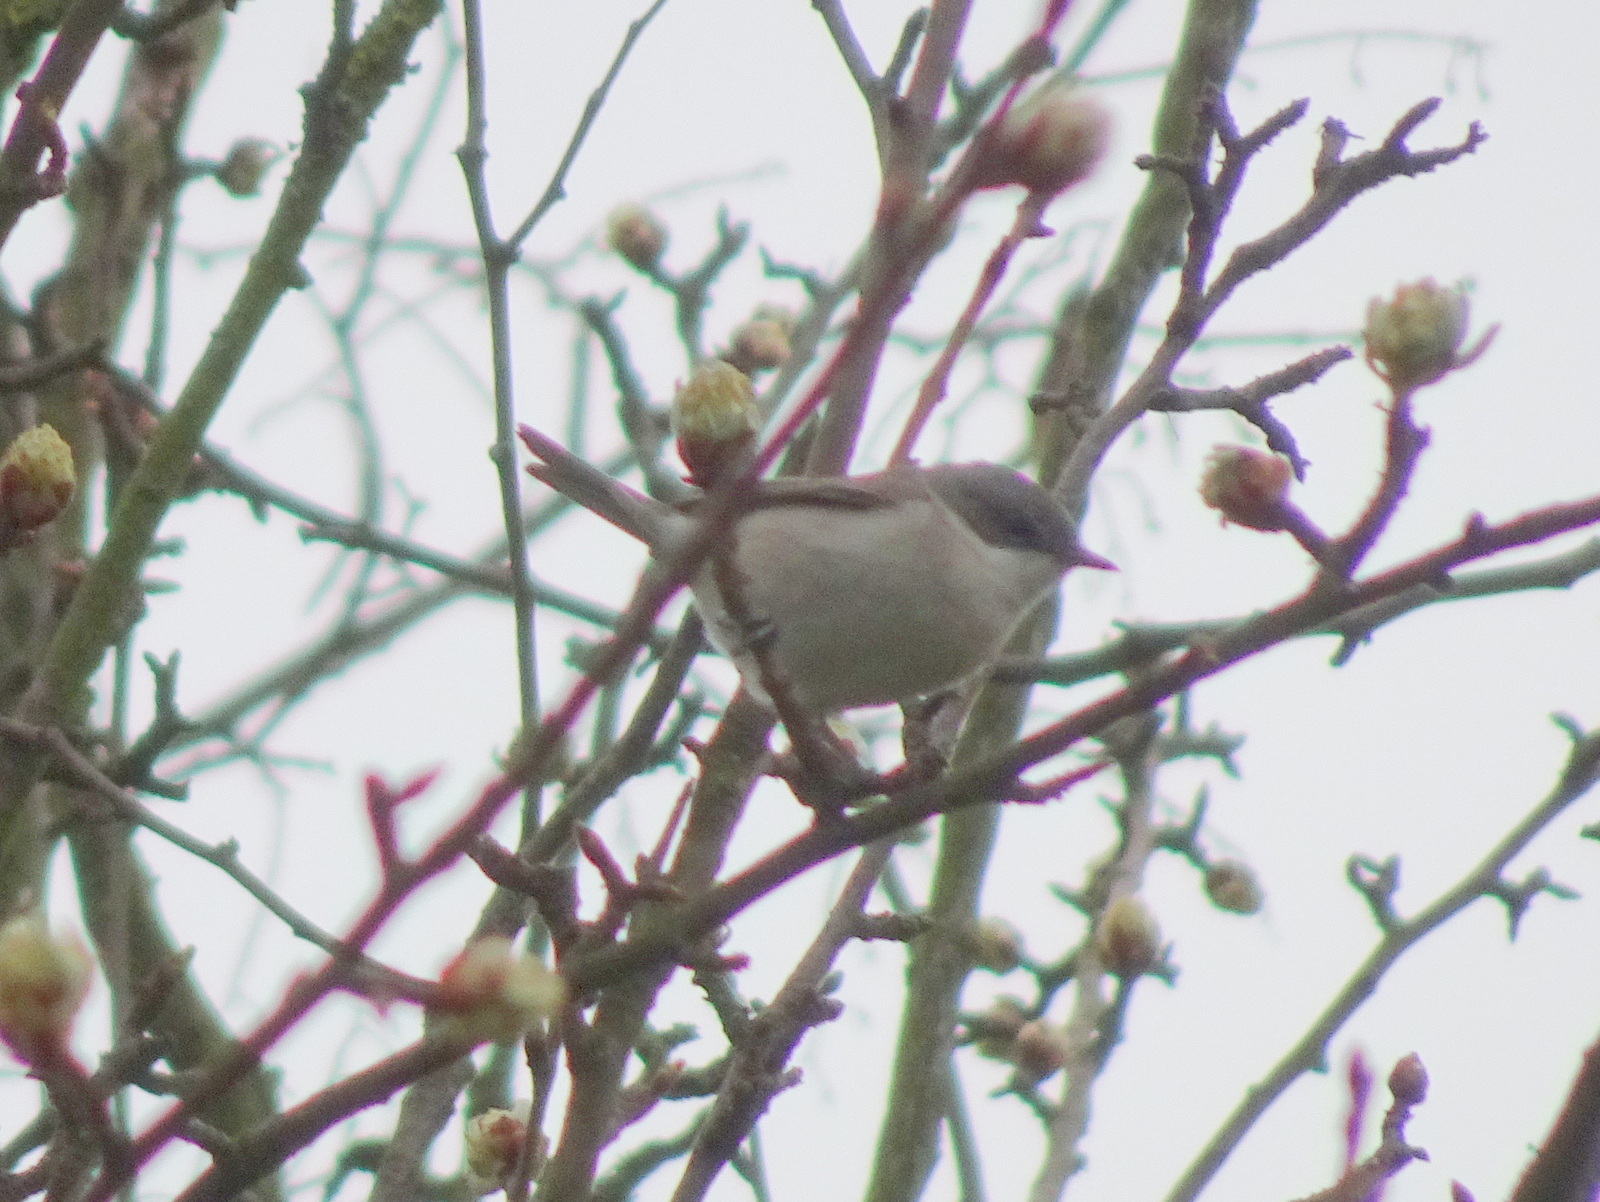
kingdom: Animalia
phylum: Chordata
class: Aves
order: Passeriformes
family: Sylviidae
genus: Sylvia
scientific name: Sylvia curruca
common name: Lesser whitethroat
